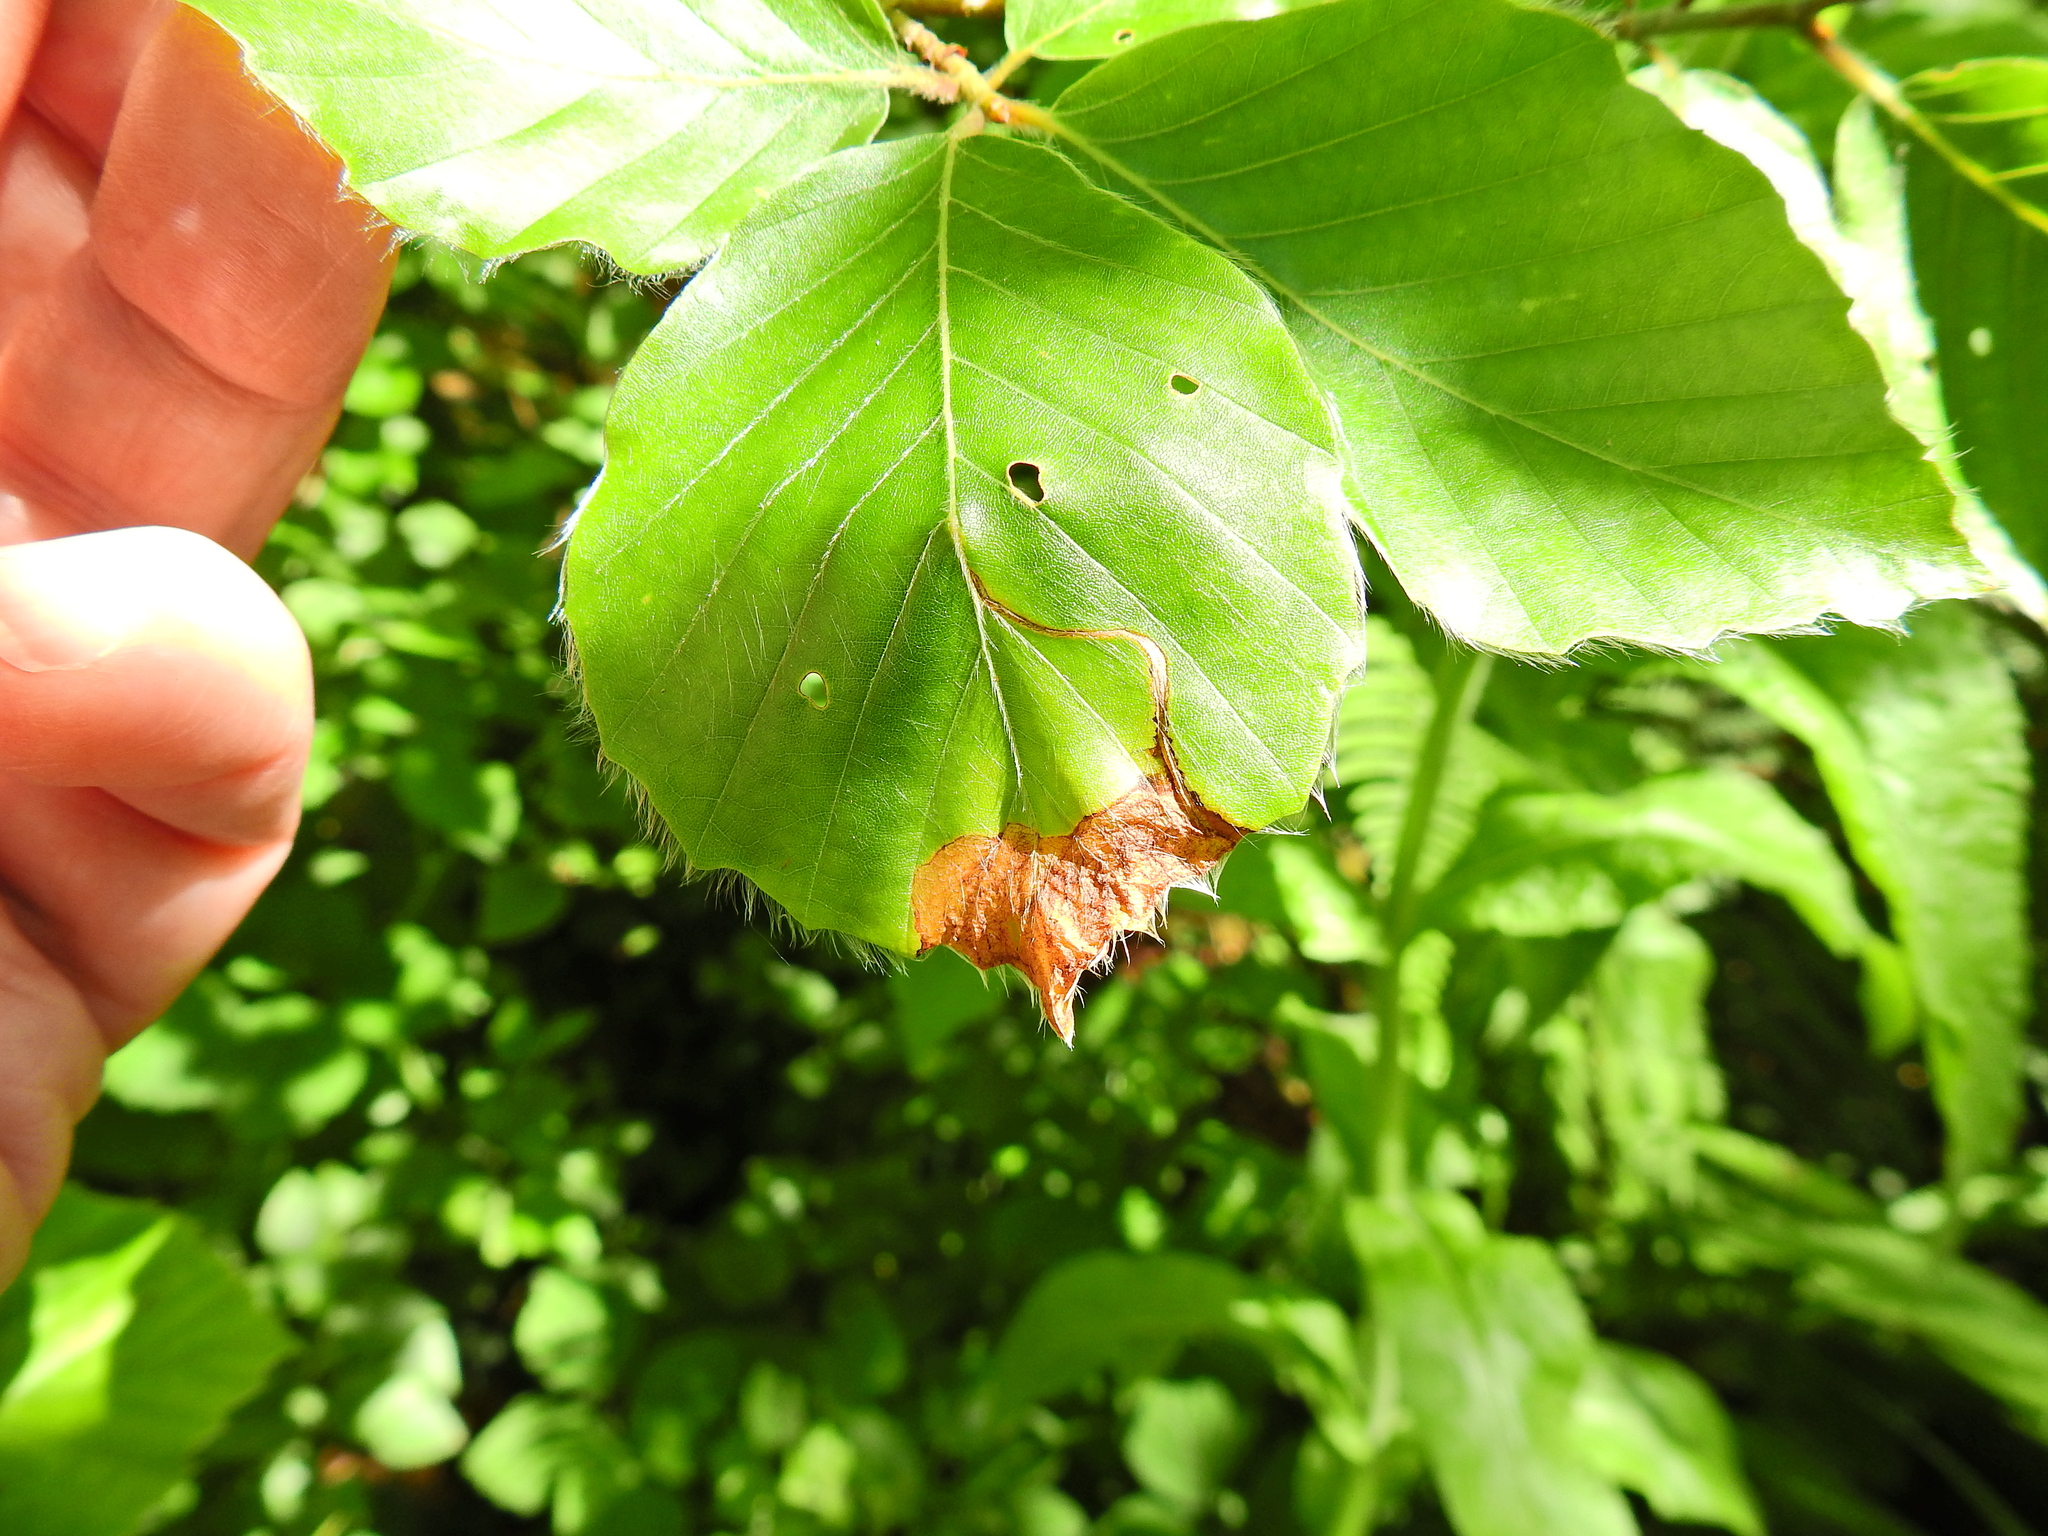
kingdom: Animalia
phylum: Arthropoda
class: Insecta
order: Coleoptera
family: Curculionidae
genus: Orchestes
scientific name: Orchestes fagi
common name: Beech leaf miner
